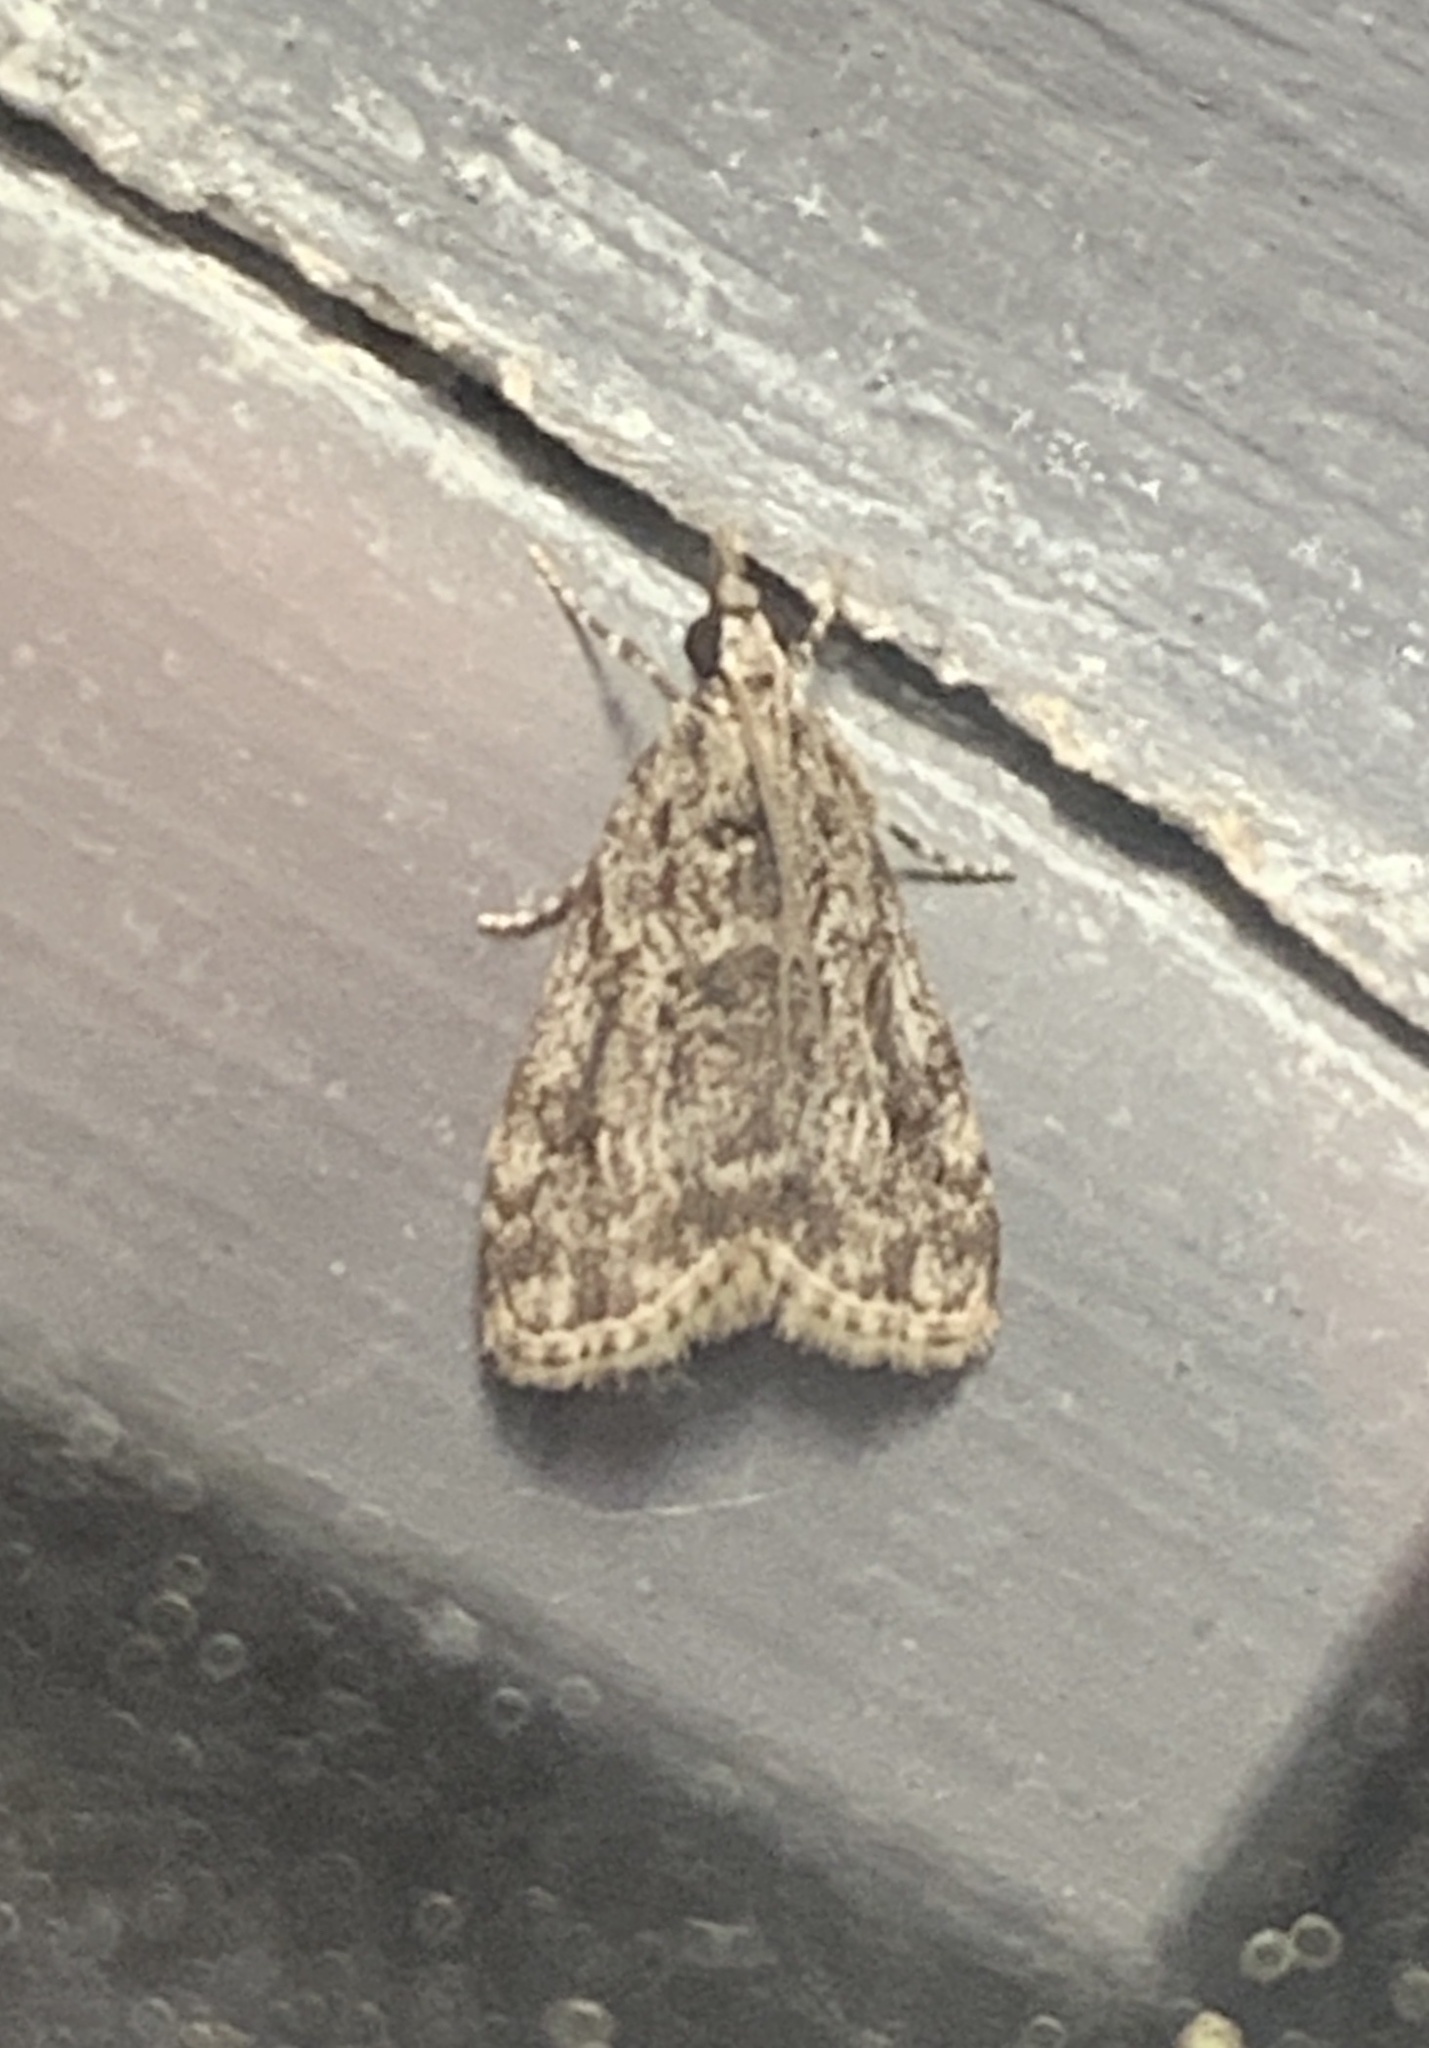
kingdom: Animalia
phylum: Arthropoda
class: Insecta
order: Lepidoptera
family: Crambidae
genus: Eudonia
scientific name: Eudonia heterosalis
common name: Mcdunnough's eudonia
